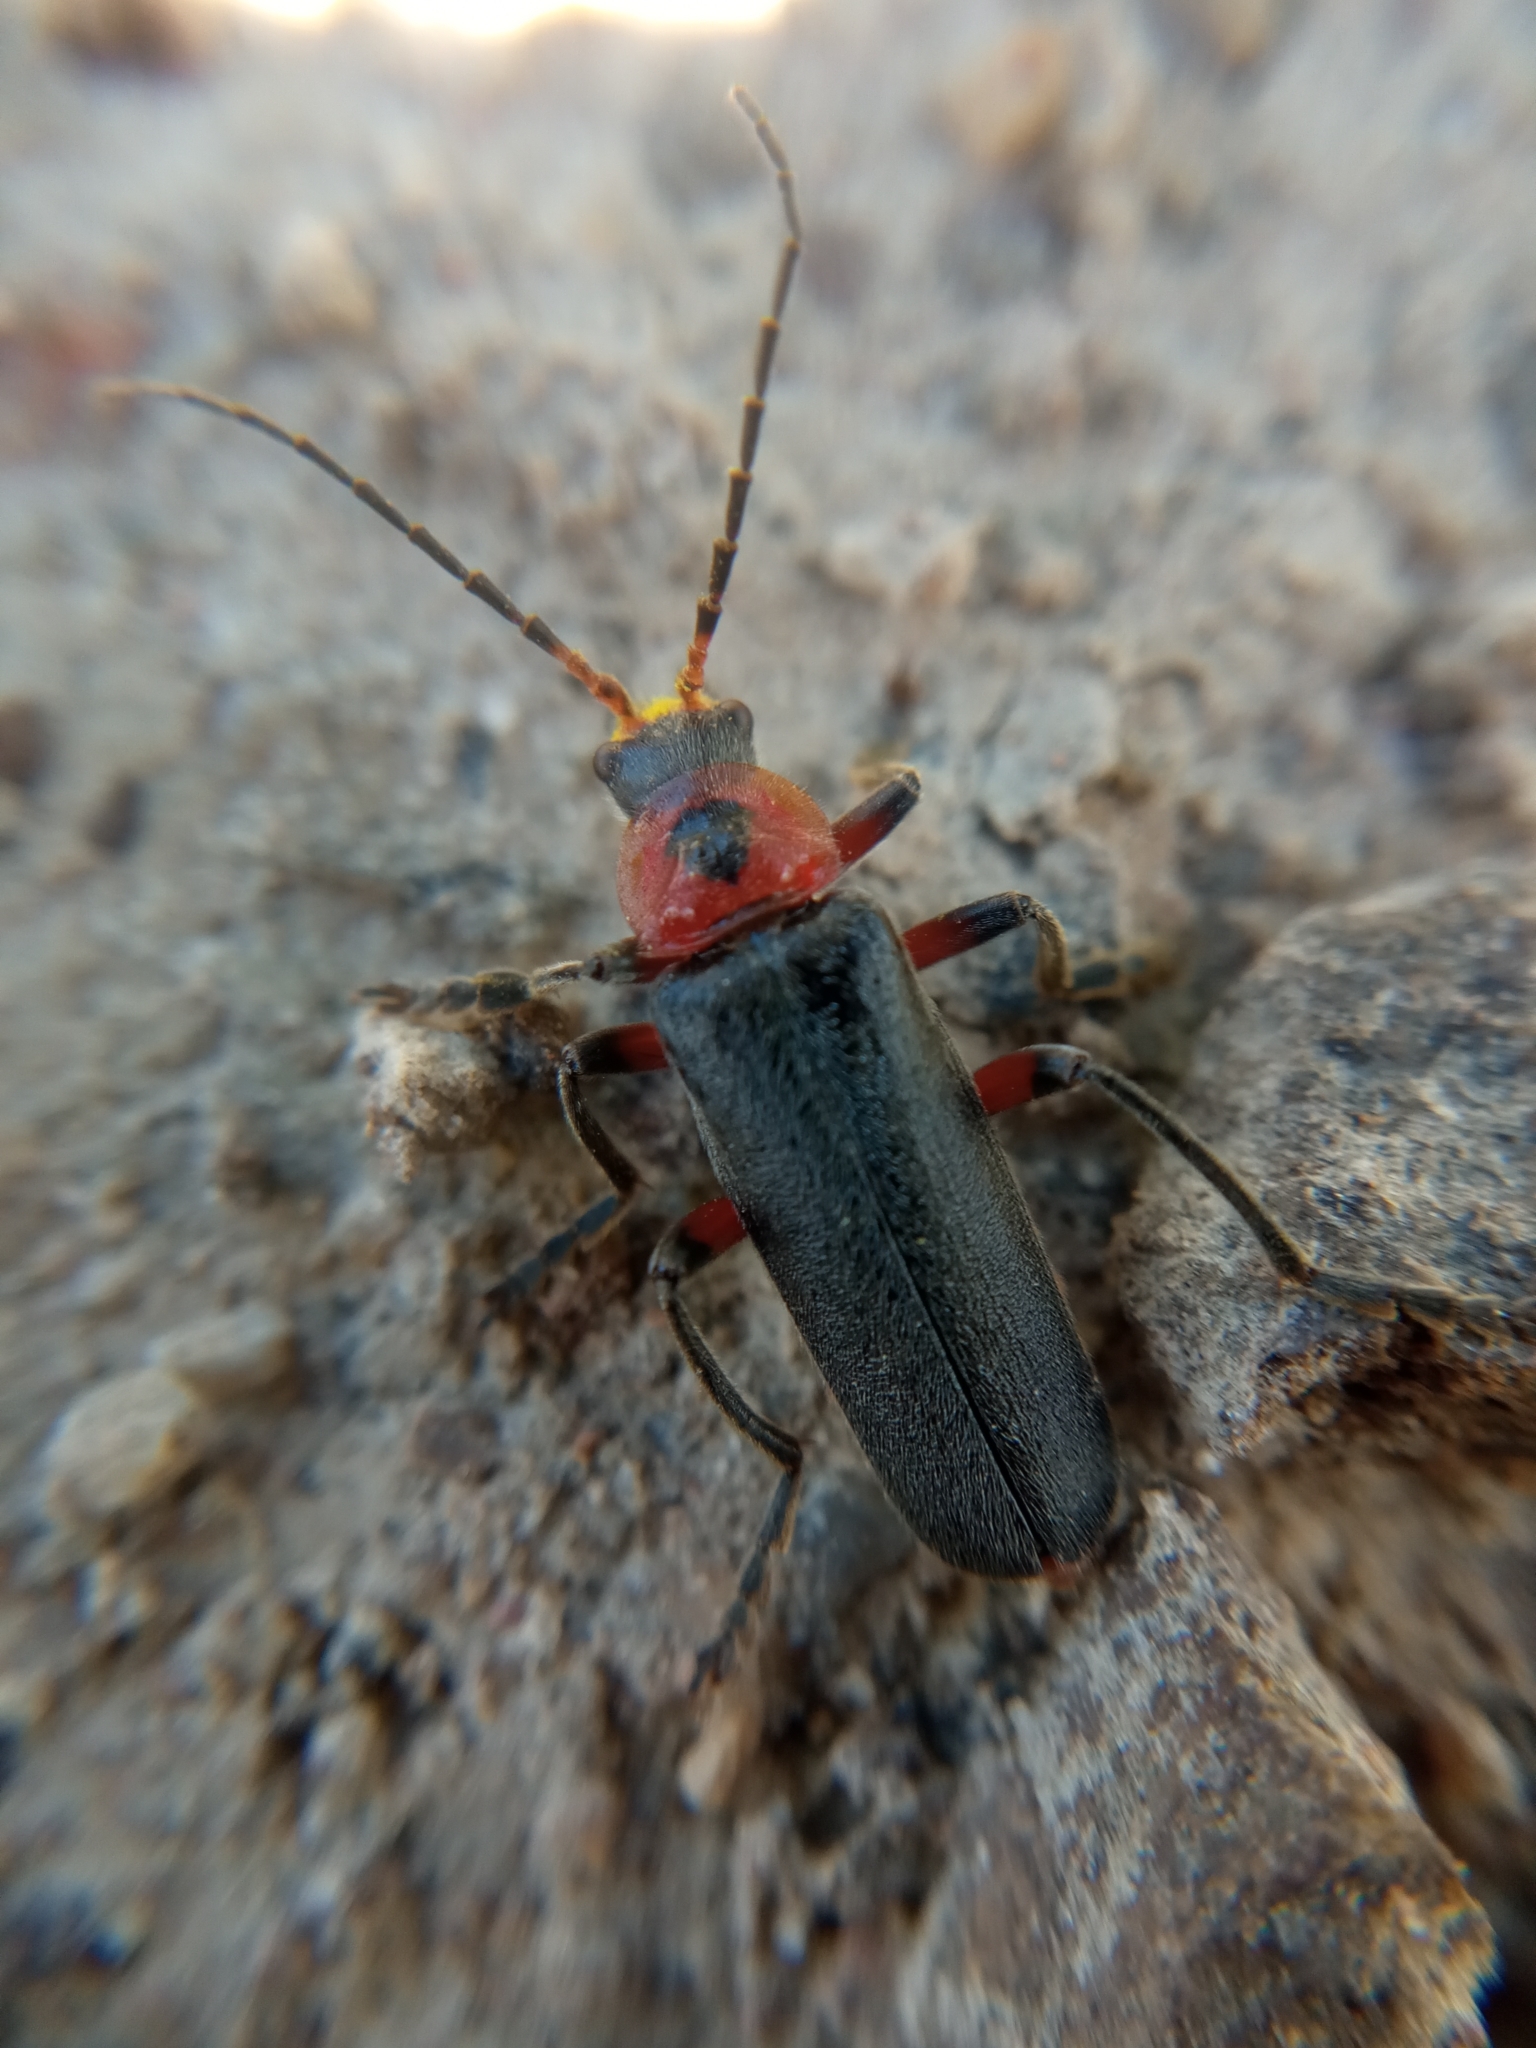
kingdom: Animalia
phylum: Arthropoda
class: Insecta
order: Coleoptera
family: Cantharidae
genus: Cantharis
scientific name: Cantharis rustica
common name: Soldier beetle
